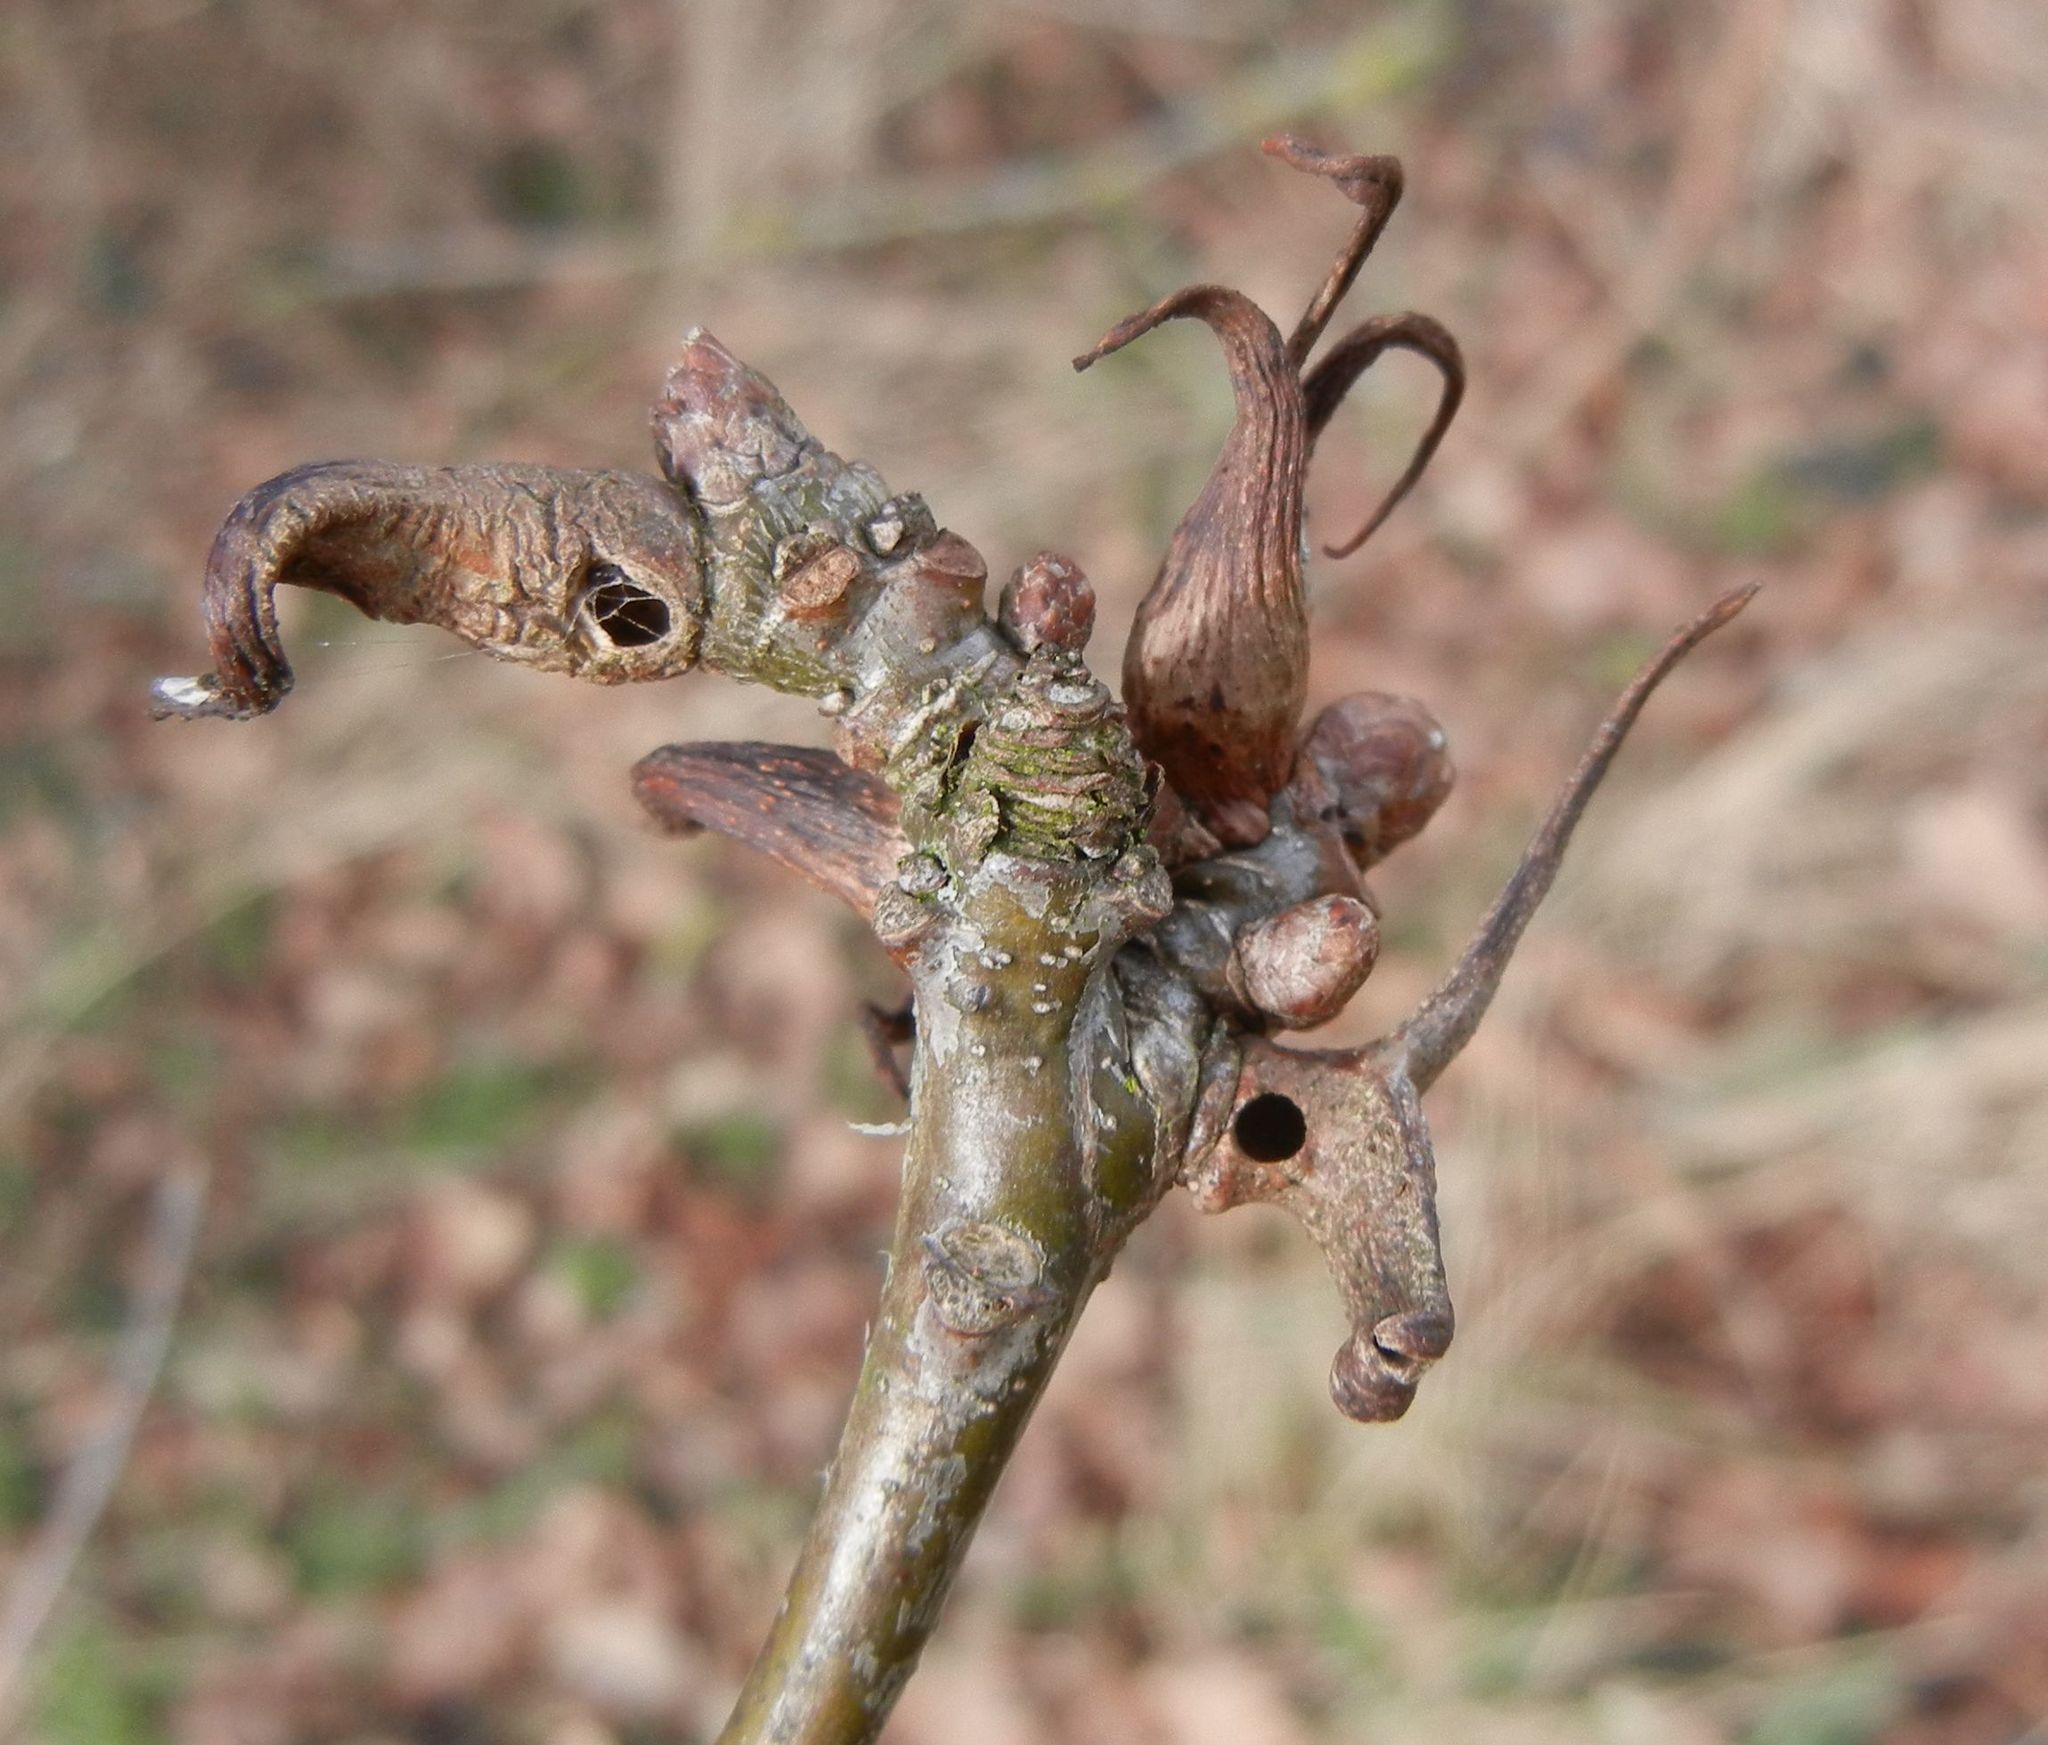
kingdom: Animalia
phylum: Arthropoda
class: Insecta
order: Hymenoptera
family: Cynipidae
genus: Andricus
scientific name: Andricus aries
